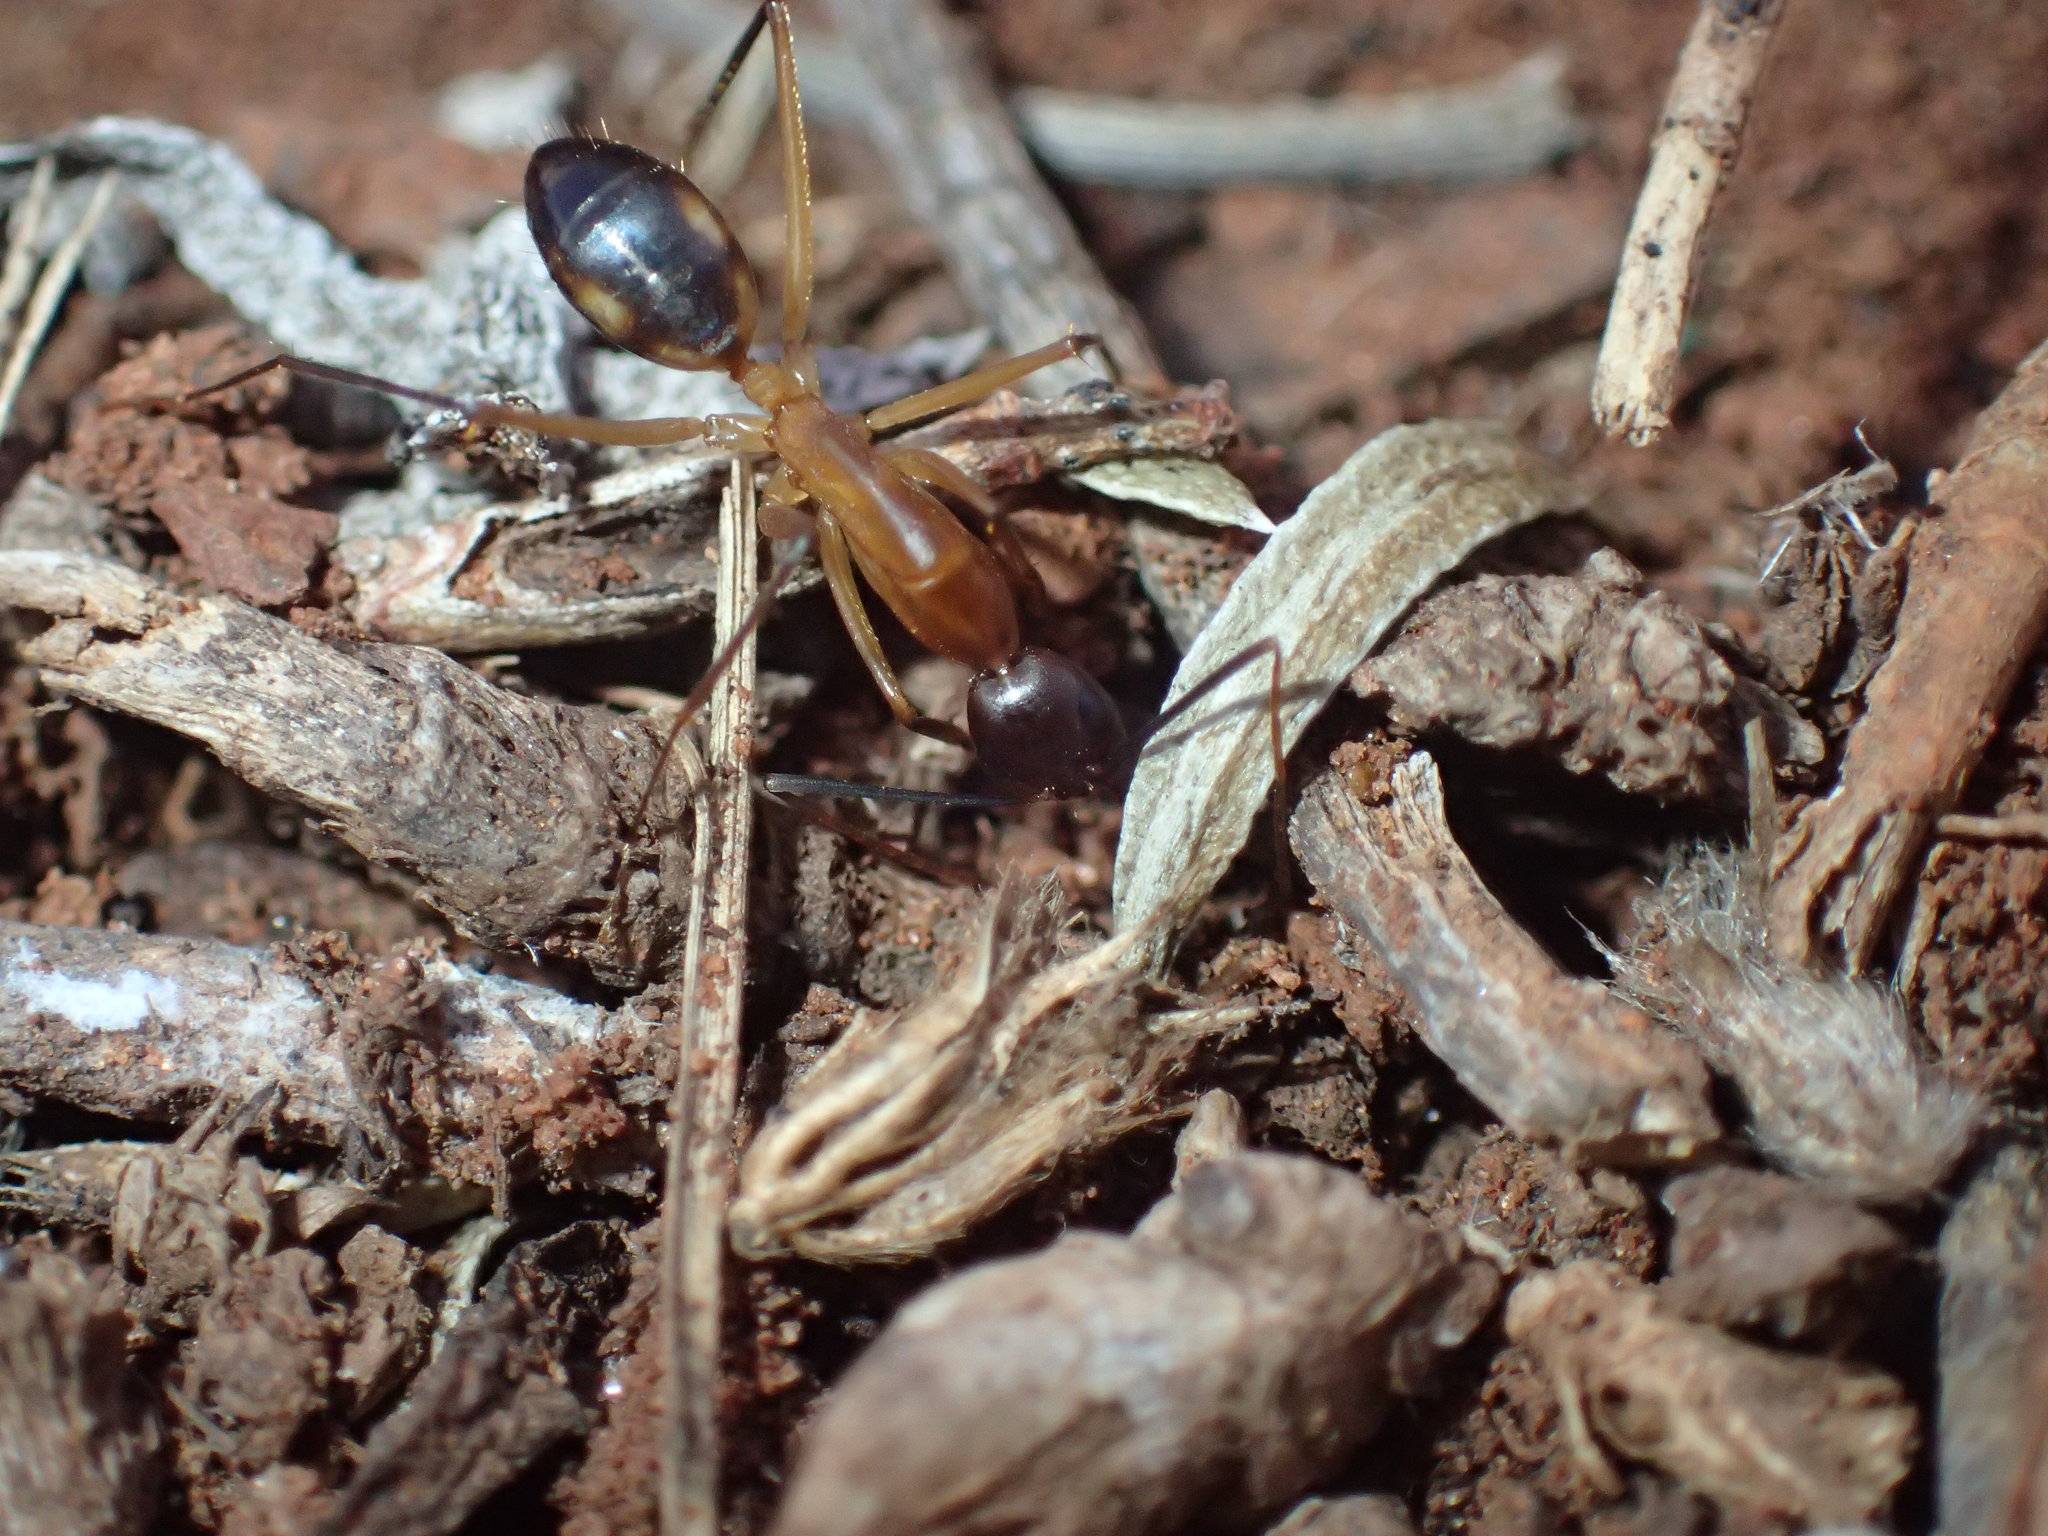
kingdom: Animalia
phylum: Arthropoda
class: Insecta
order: Hymenoptera
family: Formicidae
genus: Camponotus
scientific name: Camponotus maculatus
